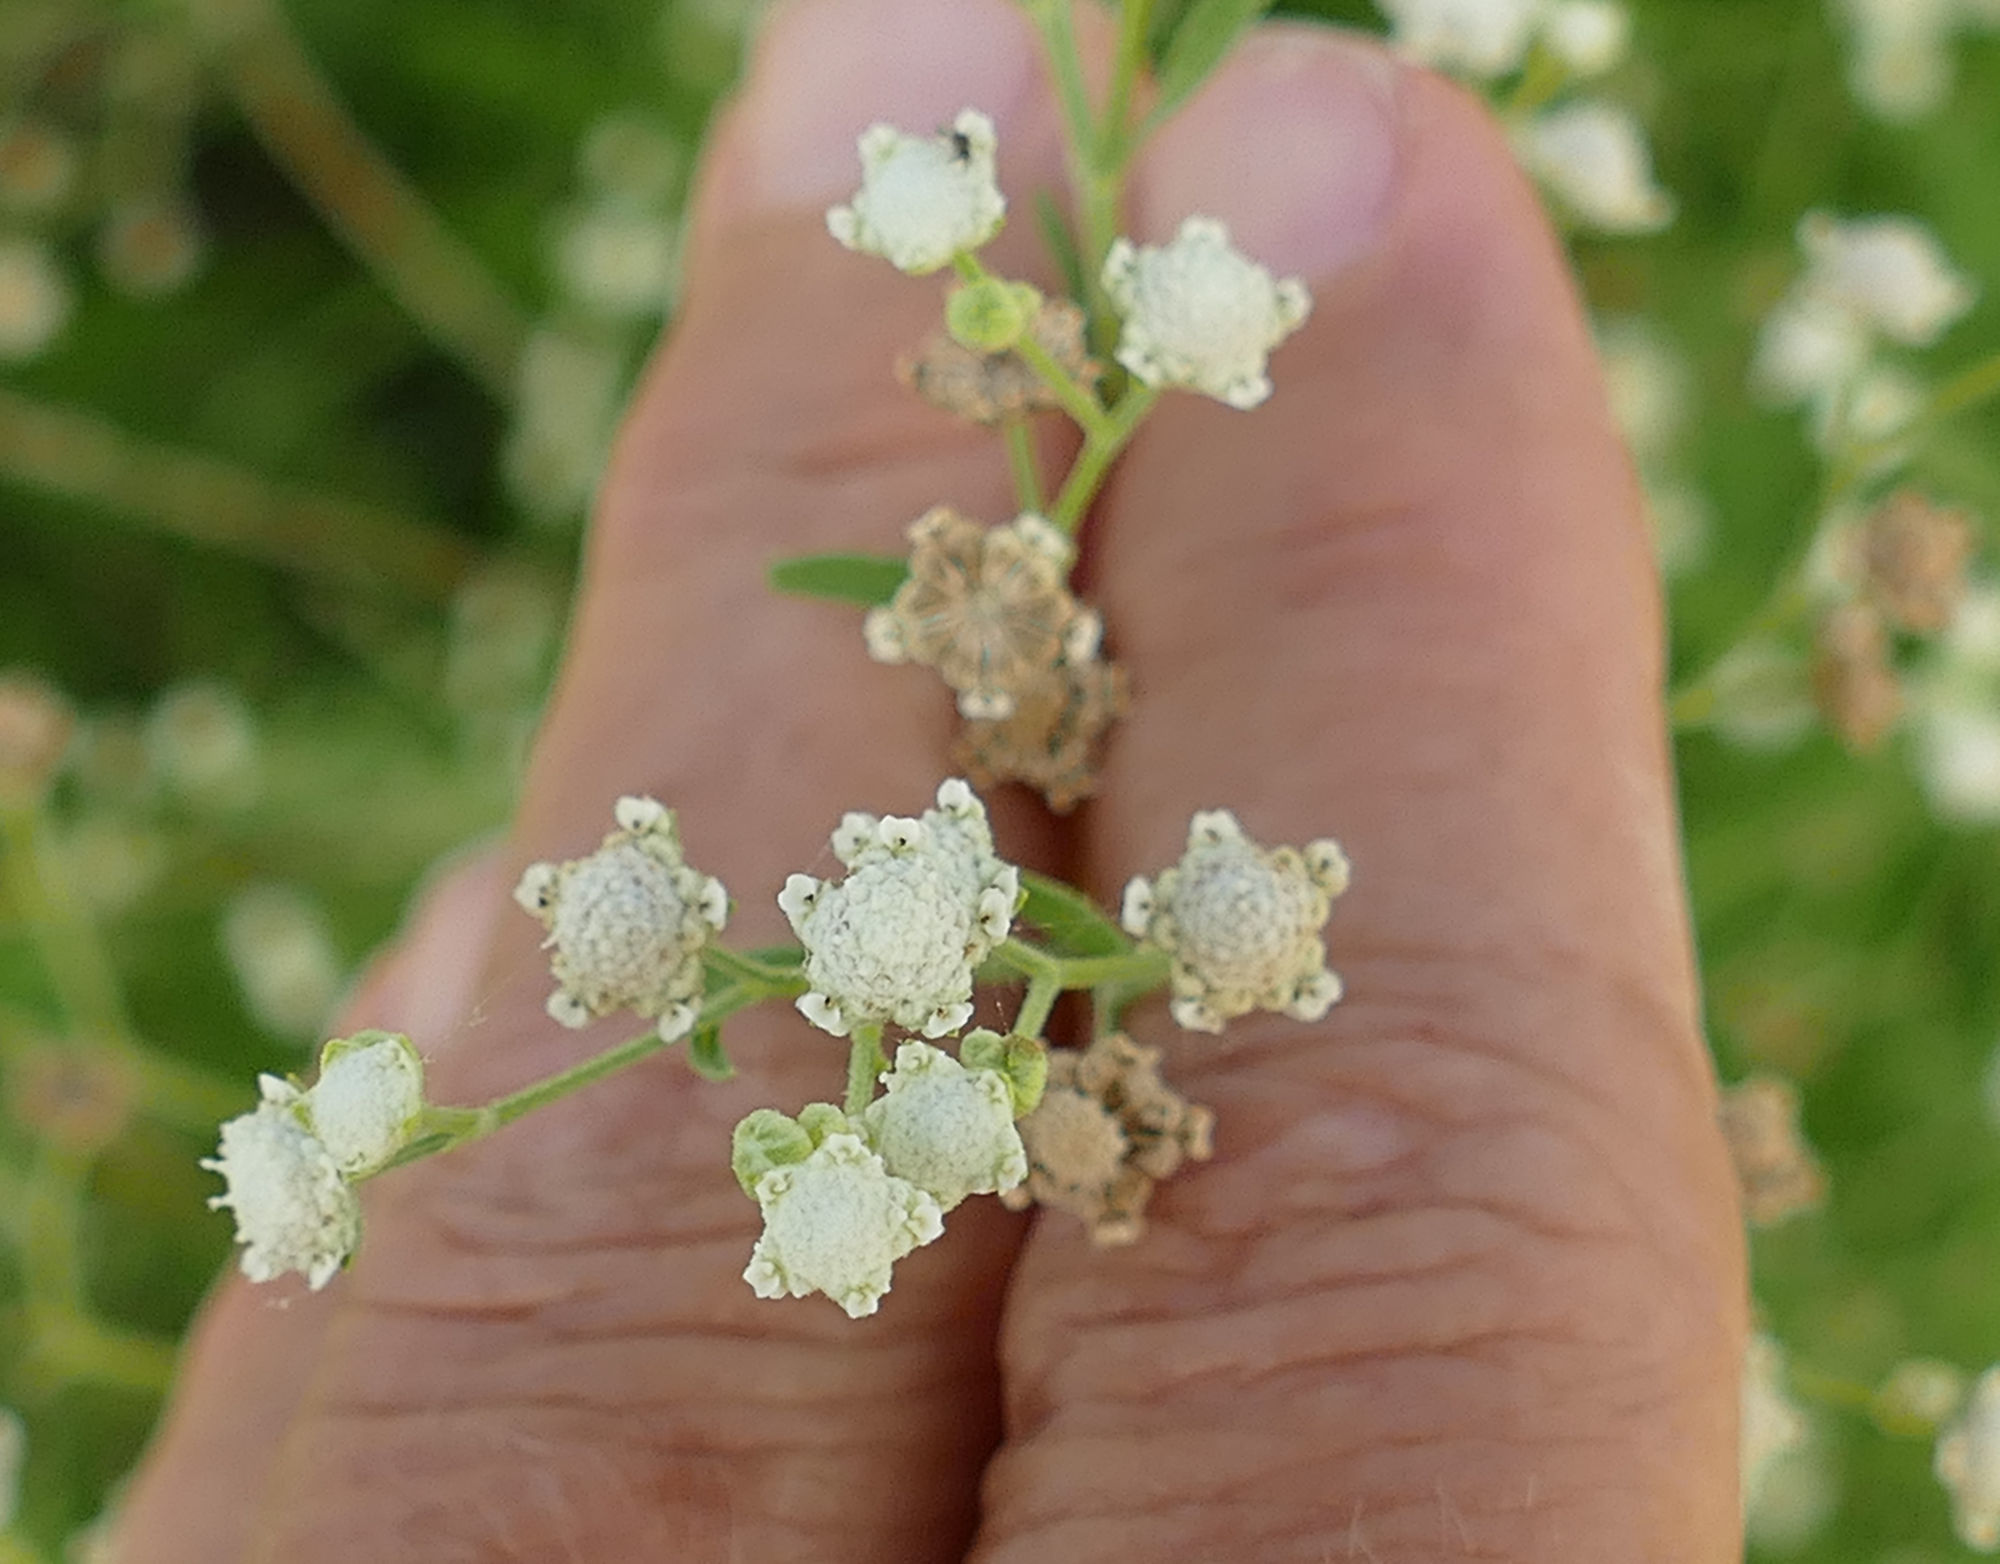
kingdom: Plantae
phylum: Tracheophyta
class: Magnoliopsida
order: Asterales
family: Asteraceae
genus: Parthenium
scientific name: Parthenium hysterophorus
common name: Santa maria feverfew
